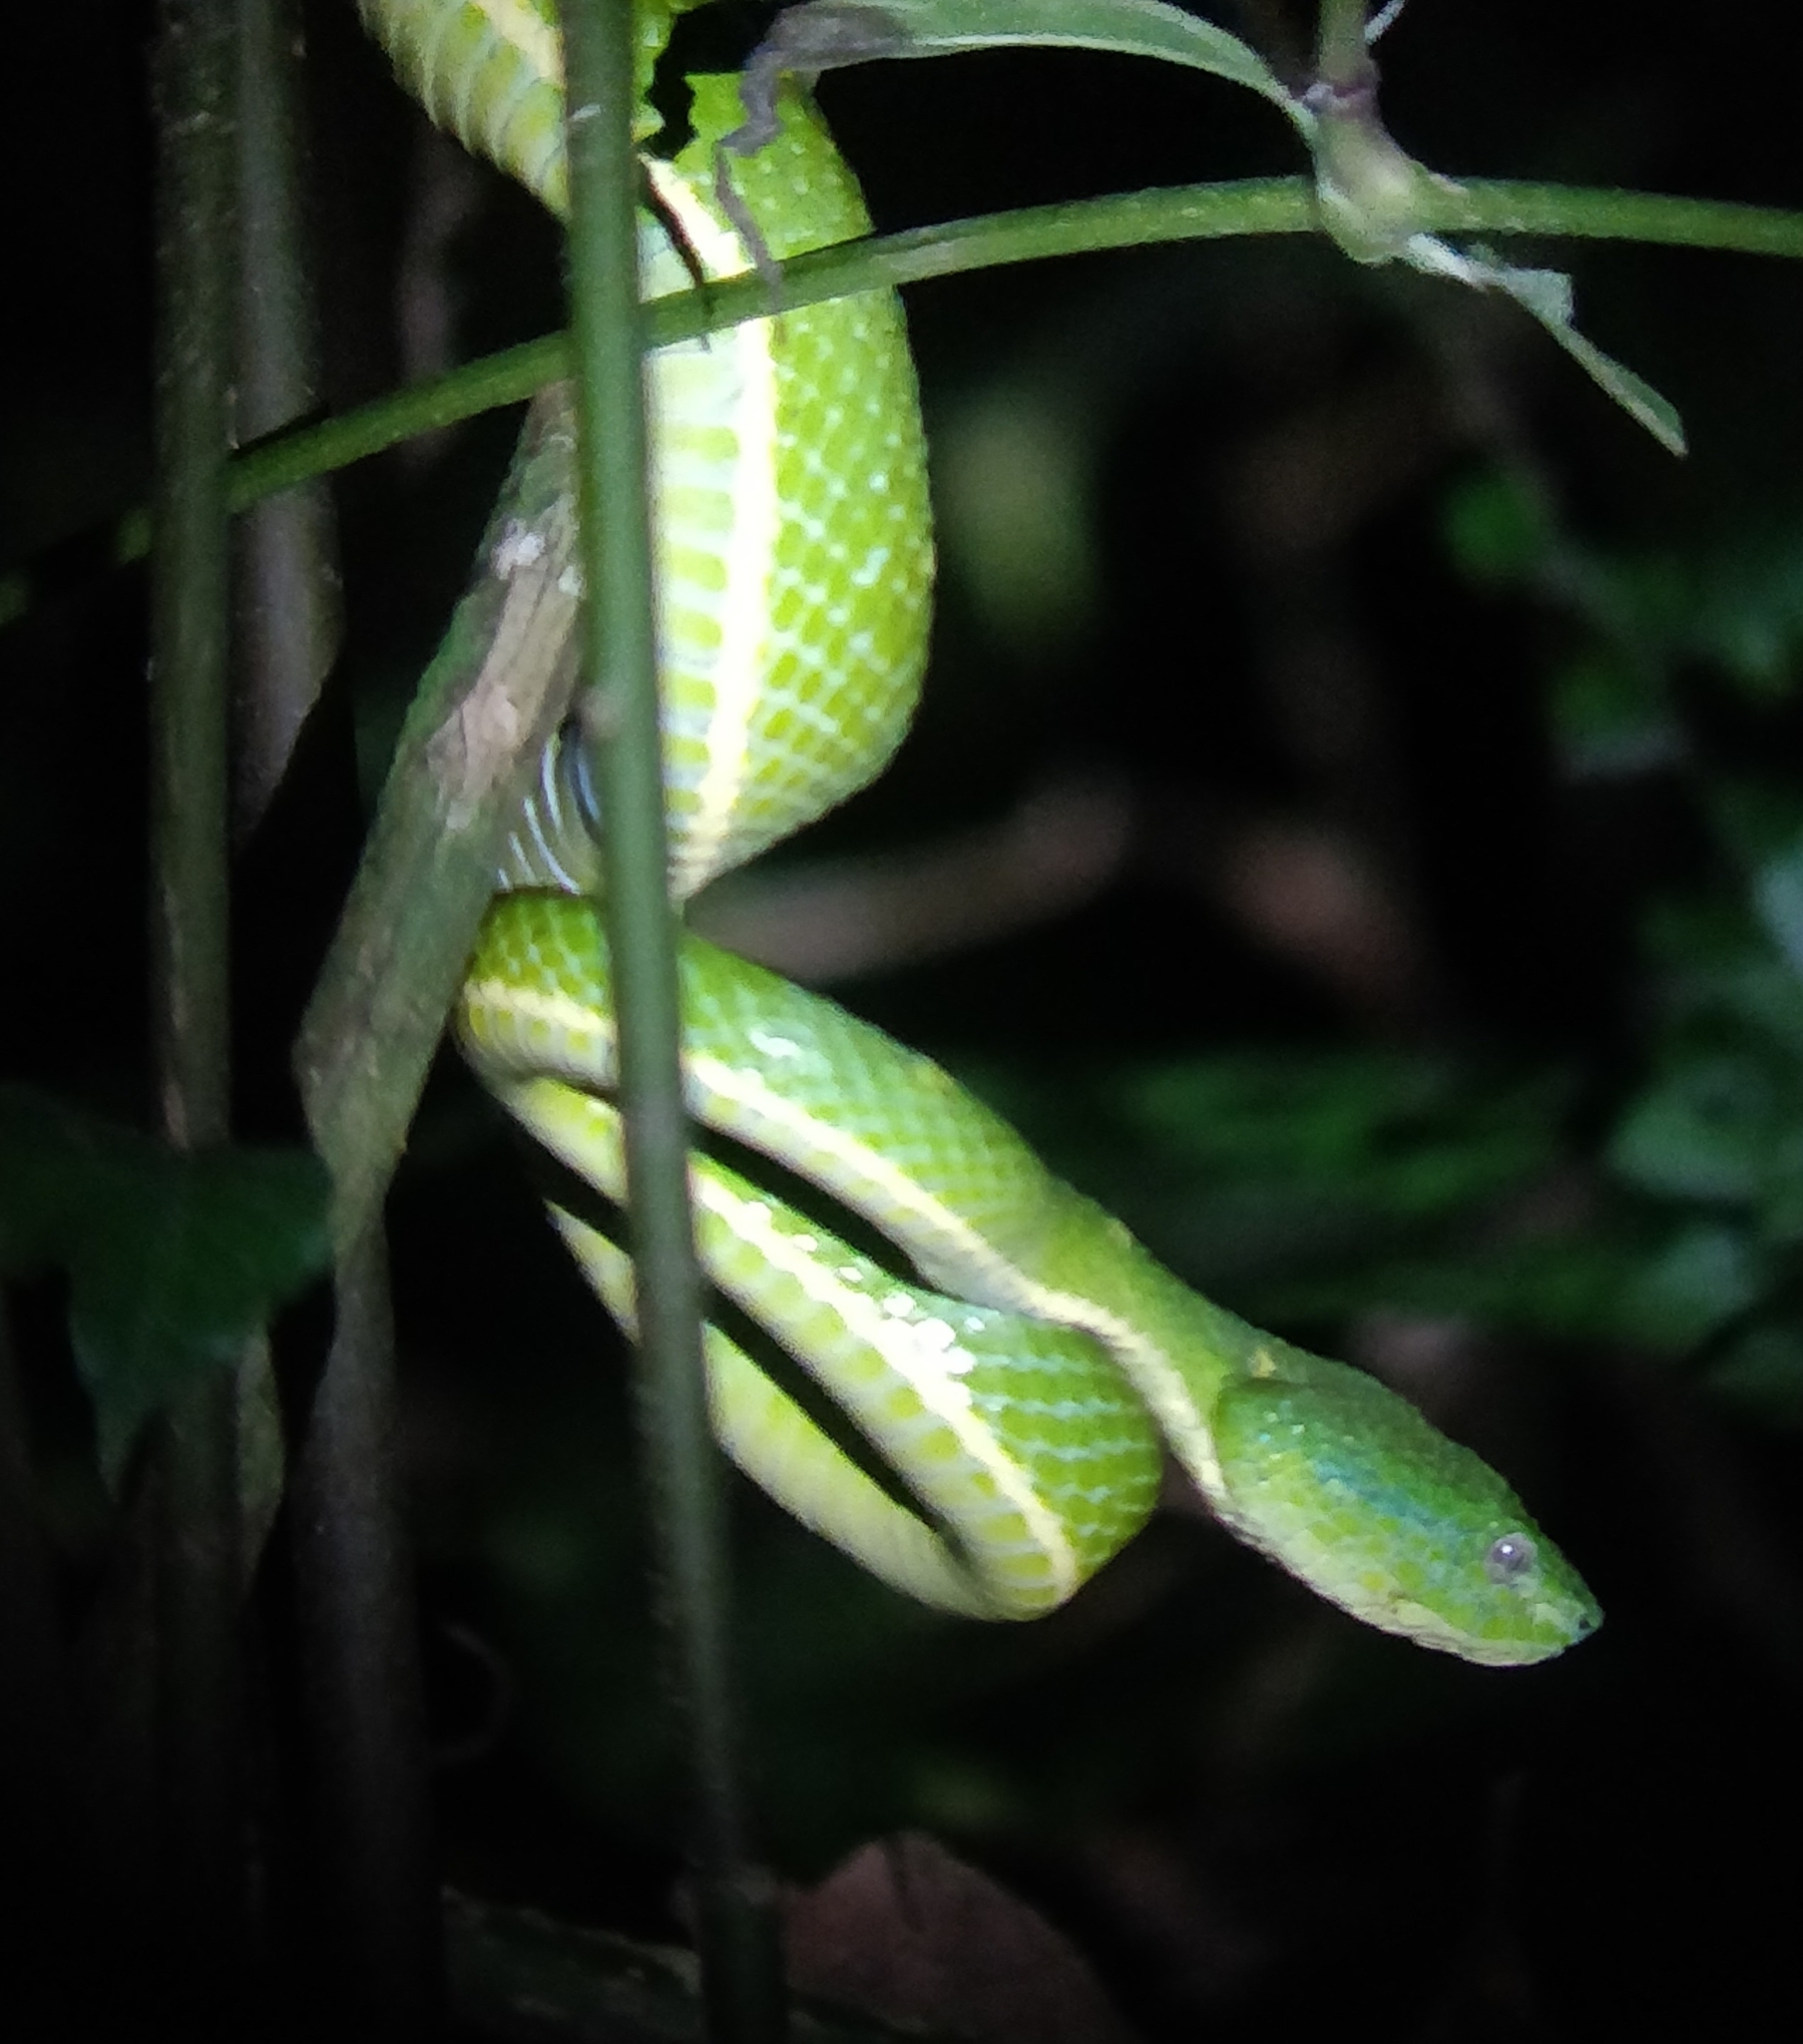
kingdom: Animalia
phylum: Chordata
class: Squamata
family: Viperidae
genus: Bothriechis
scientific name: Bothriechis lateralis
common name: Coffee palm viper
